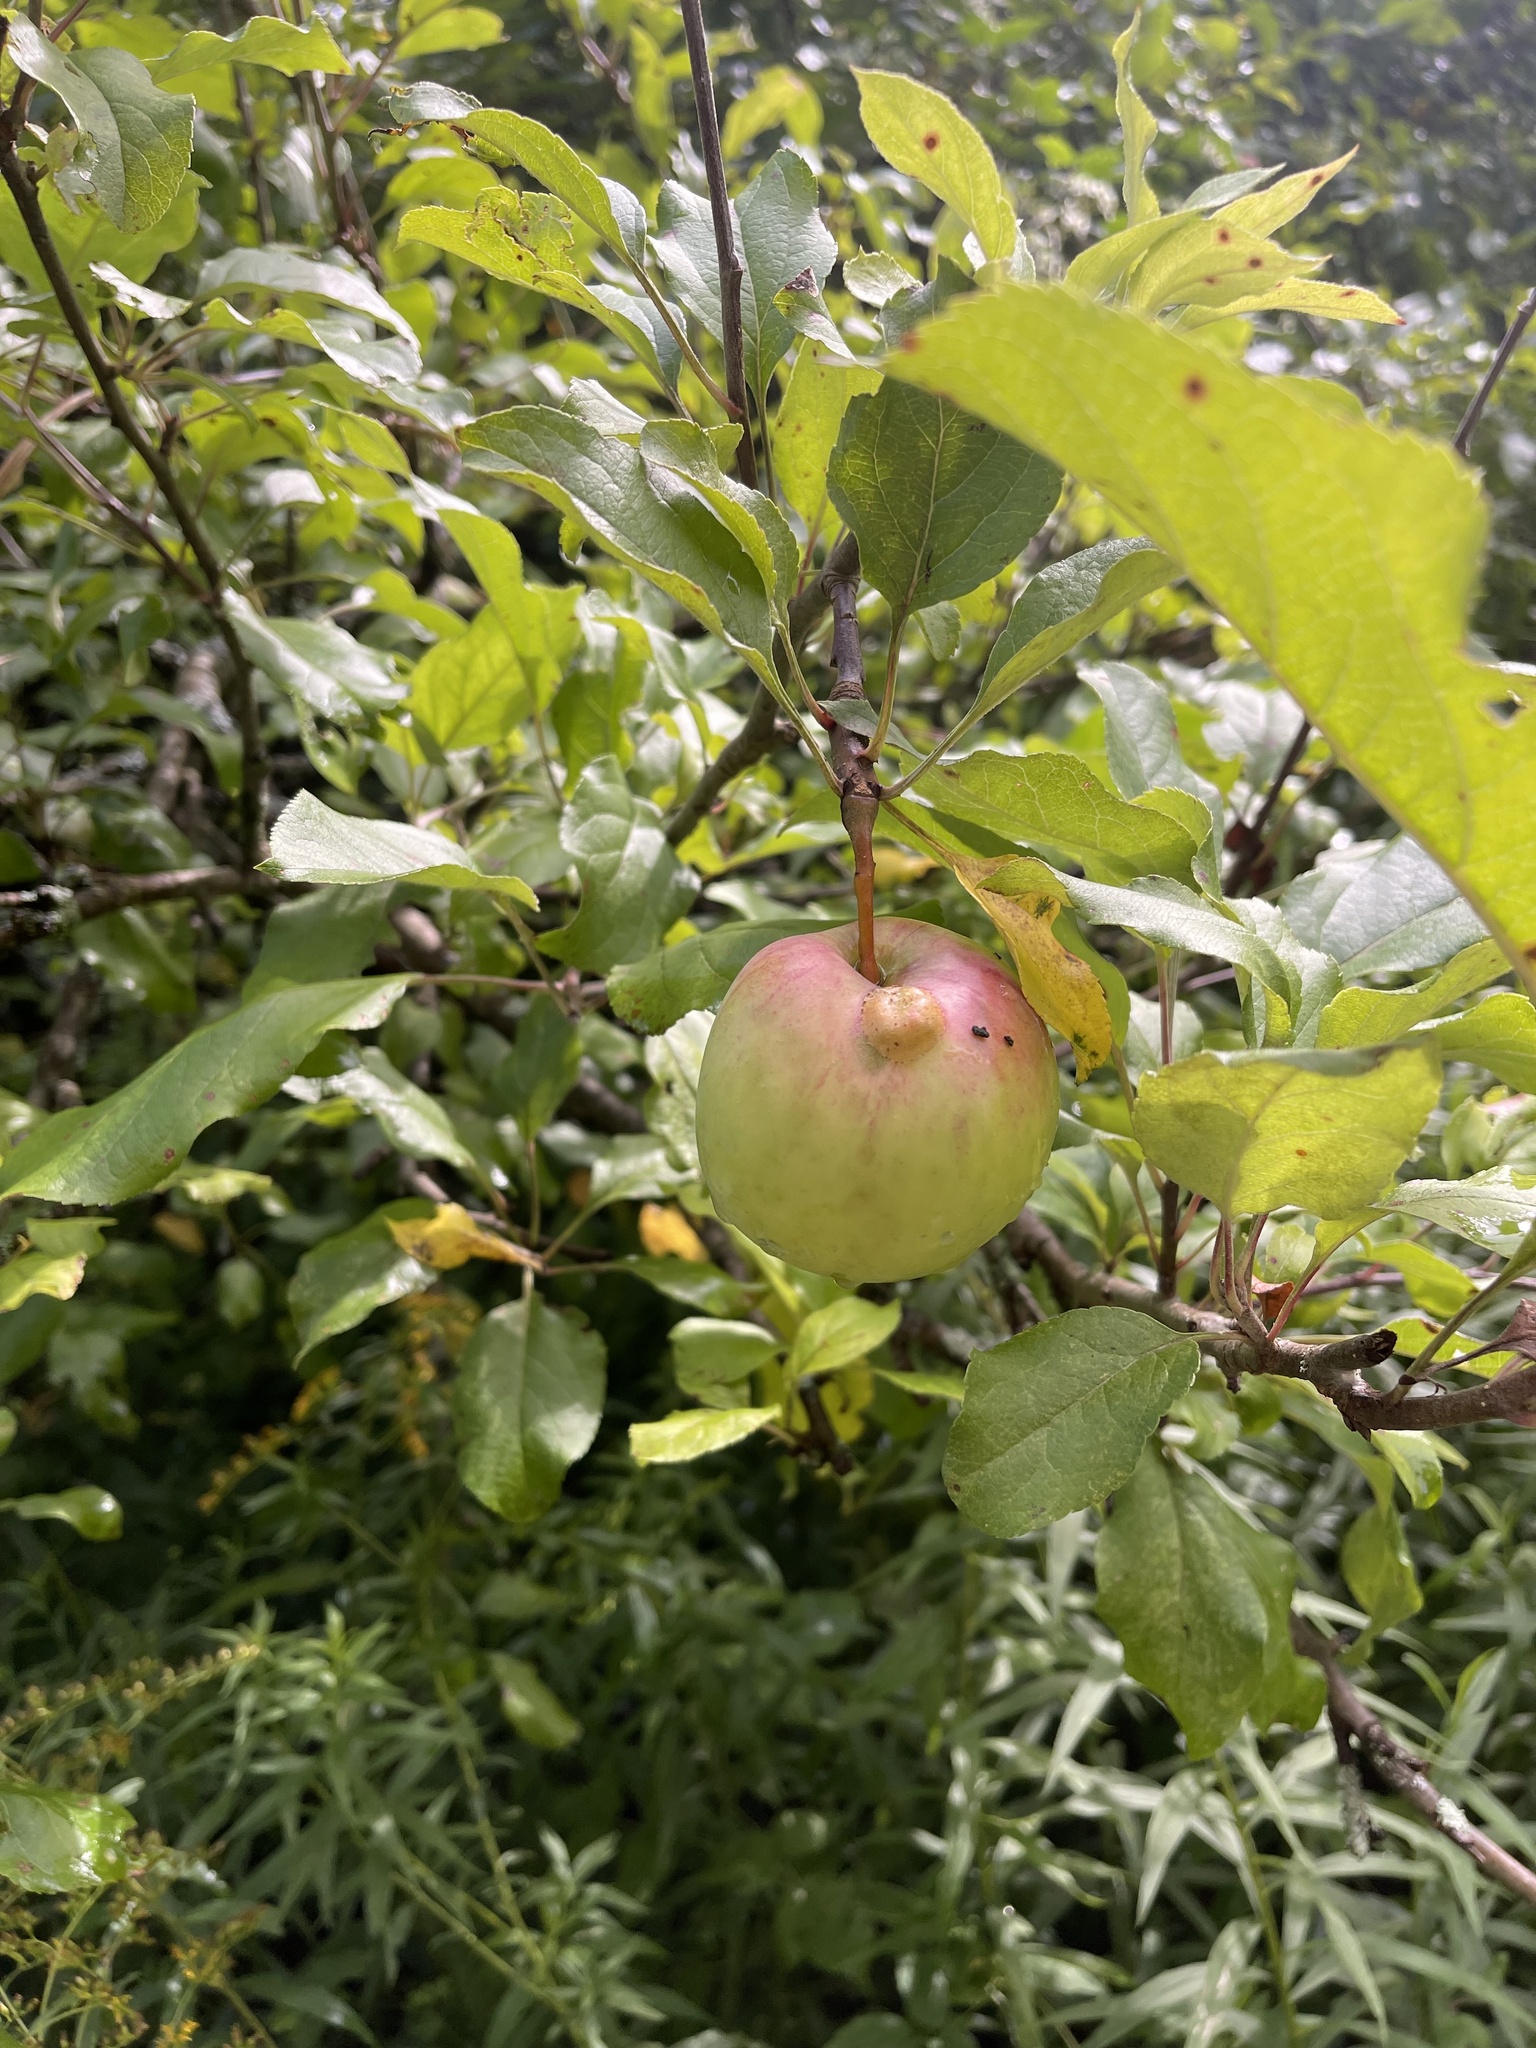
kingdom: Plantae
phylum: Tracheophyta
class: Magnoliopsida
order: Rosales
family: Rosaceae
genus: Malus
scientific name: Malus domestica
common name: Apple
